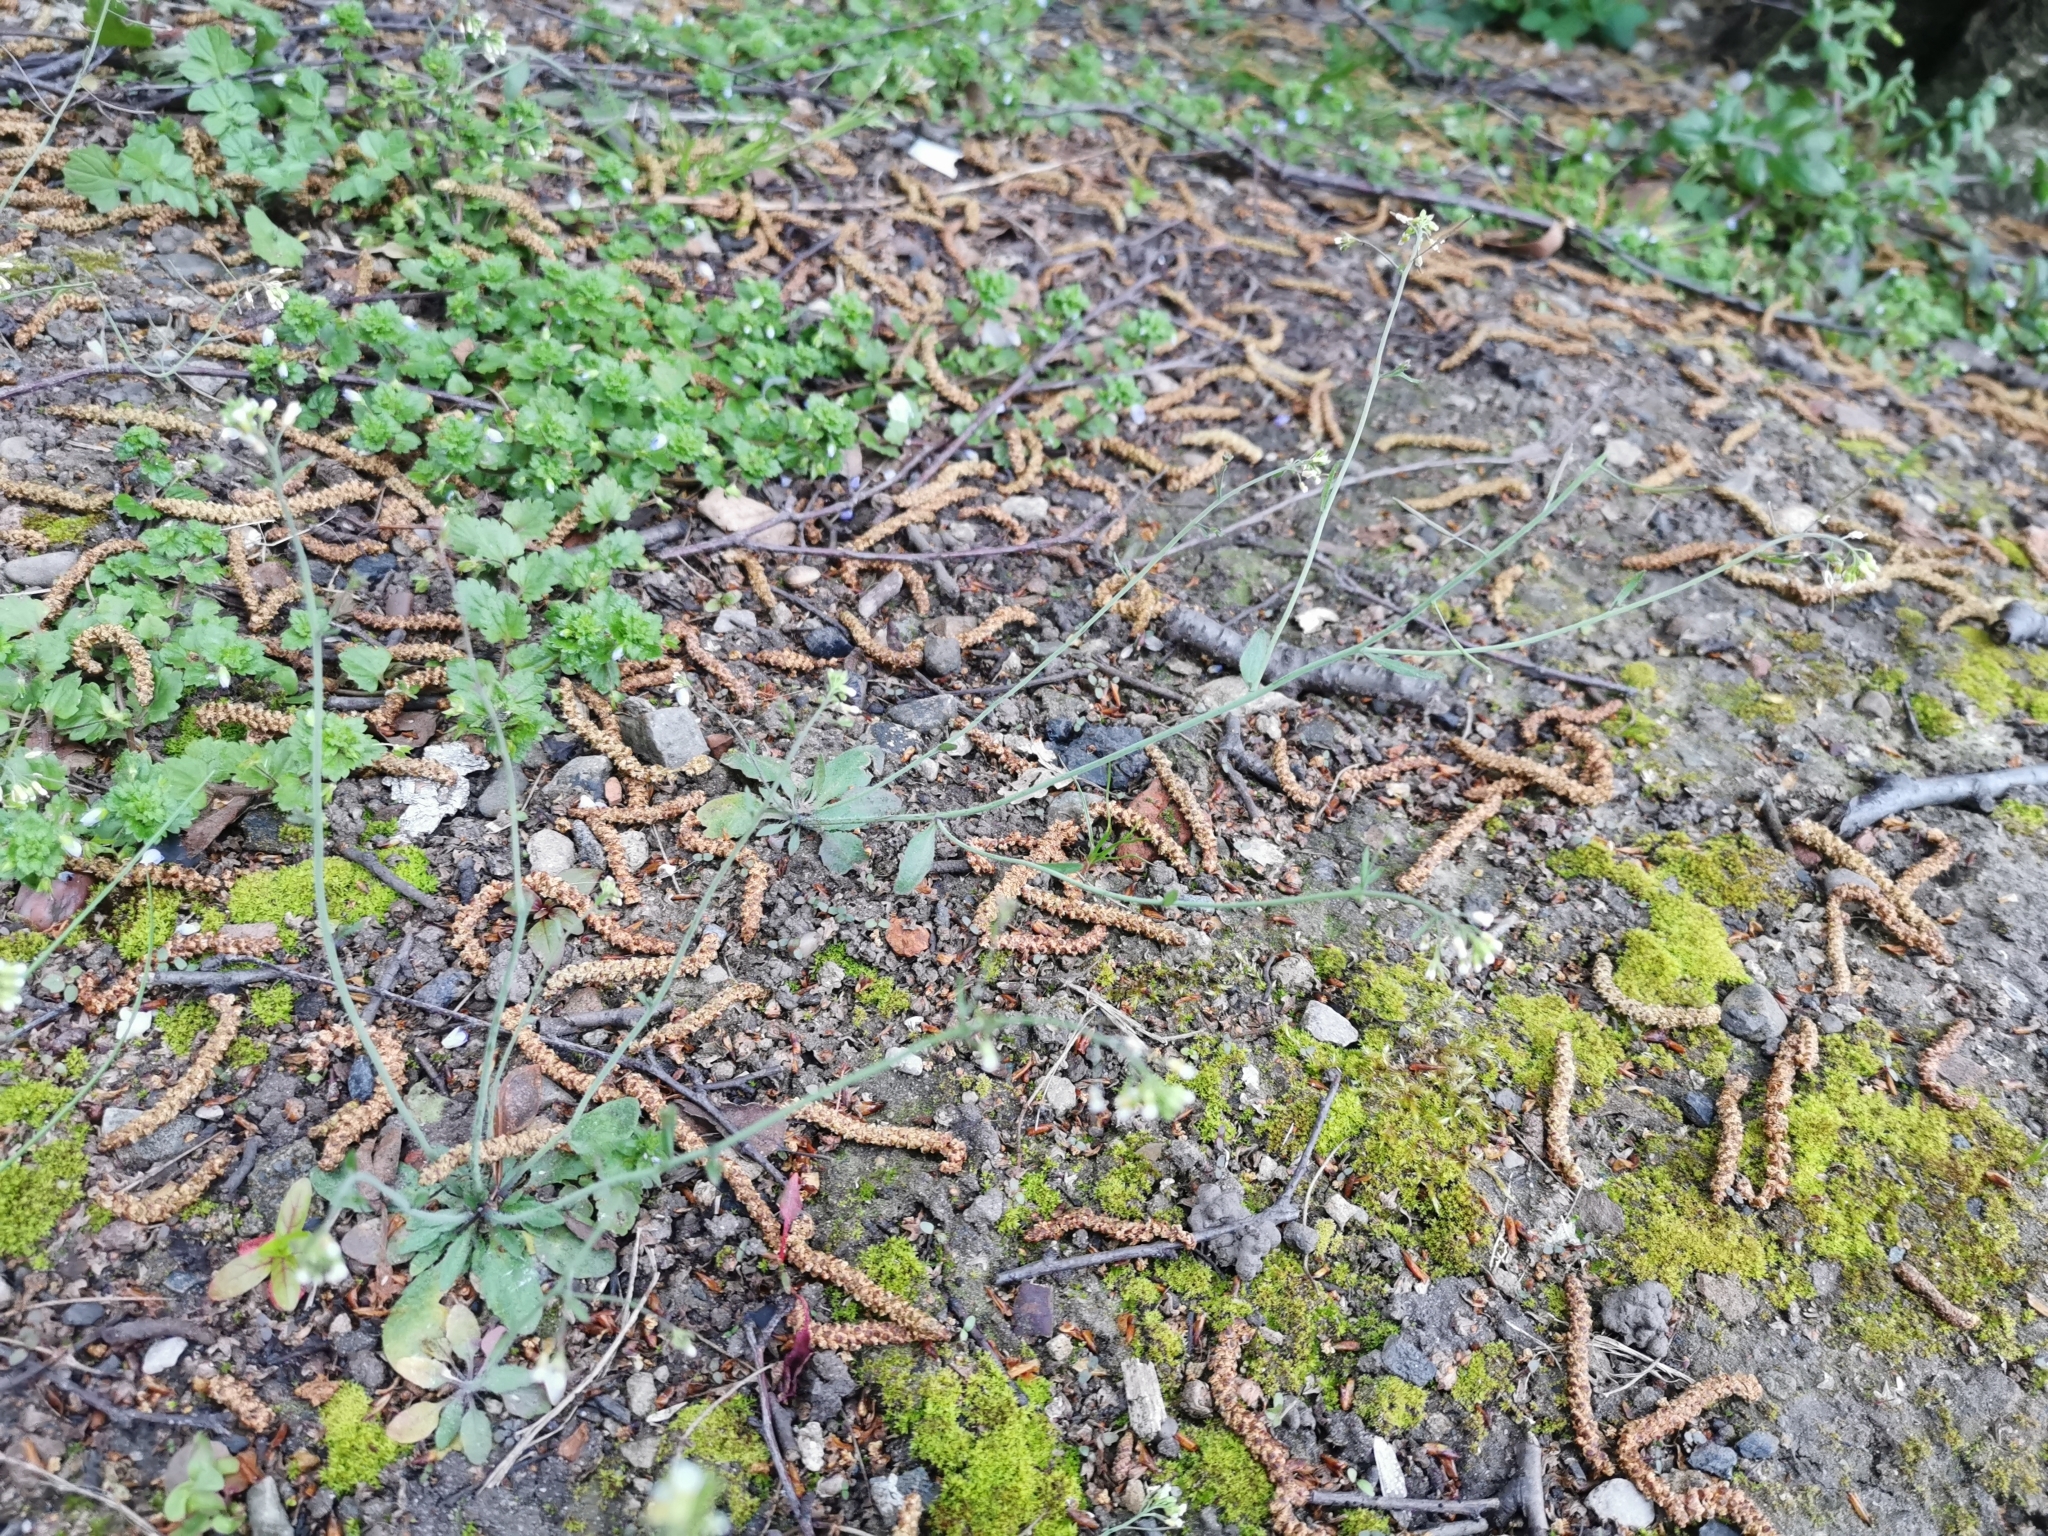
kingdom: Plantae
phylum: Tracheophyta
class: Magnoliopsida
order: Brassicales
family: Brassicaceae
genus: Arabidopsis
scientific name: Arabidopsis thaliana
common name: Thale cress
